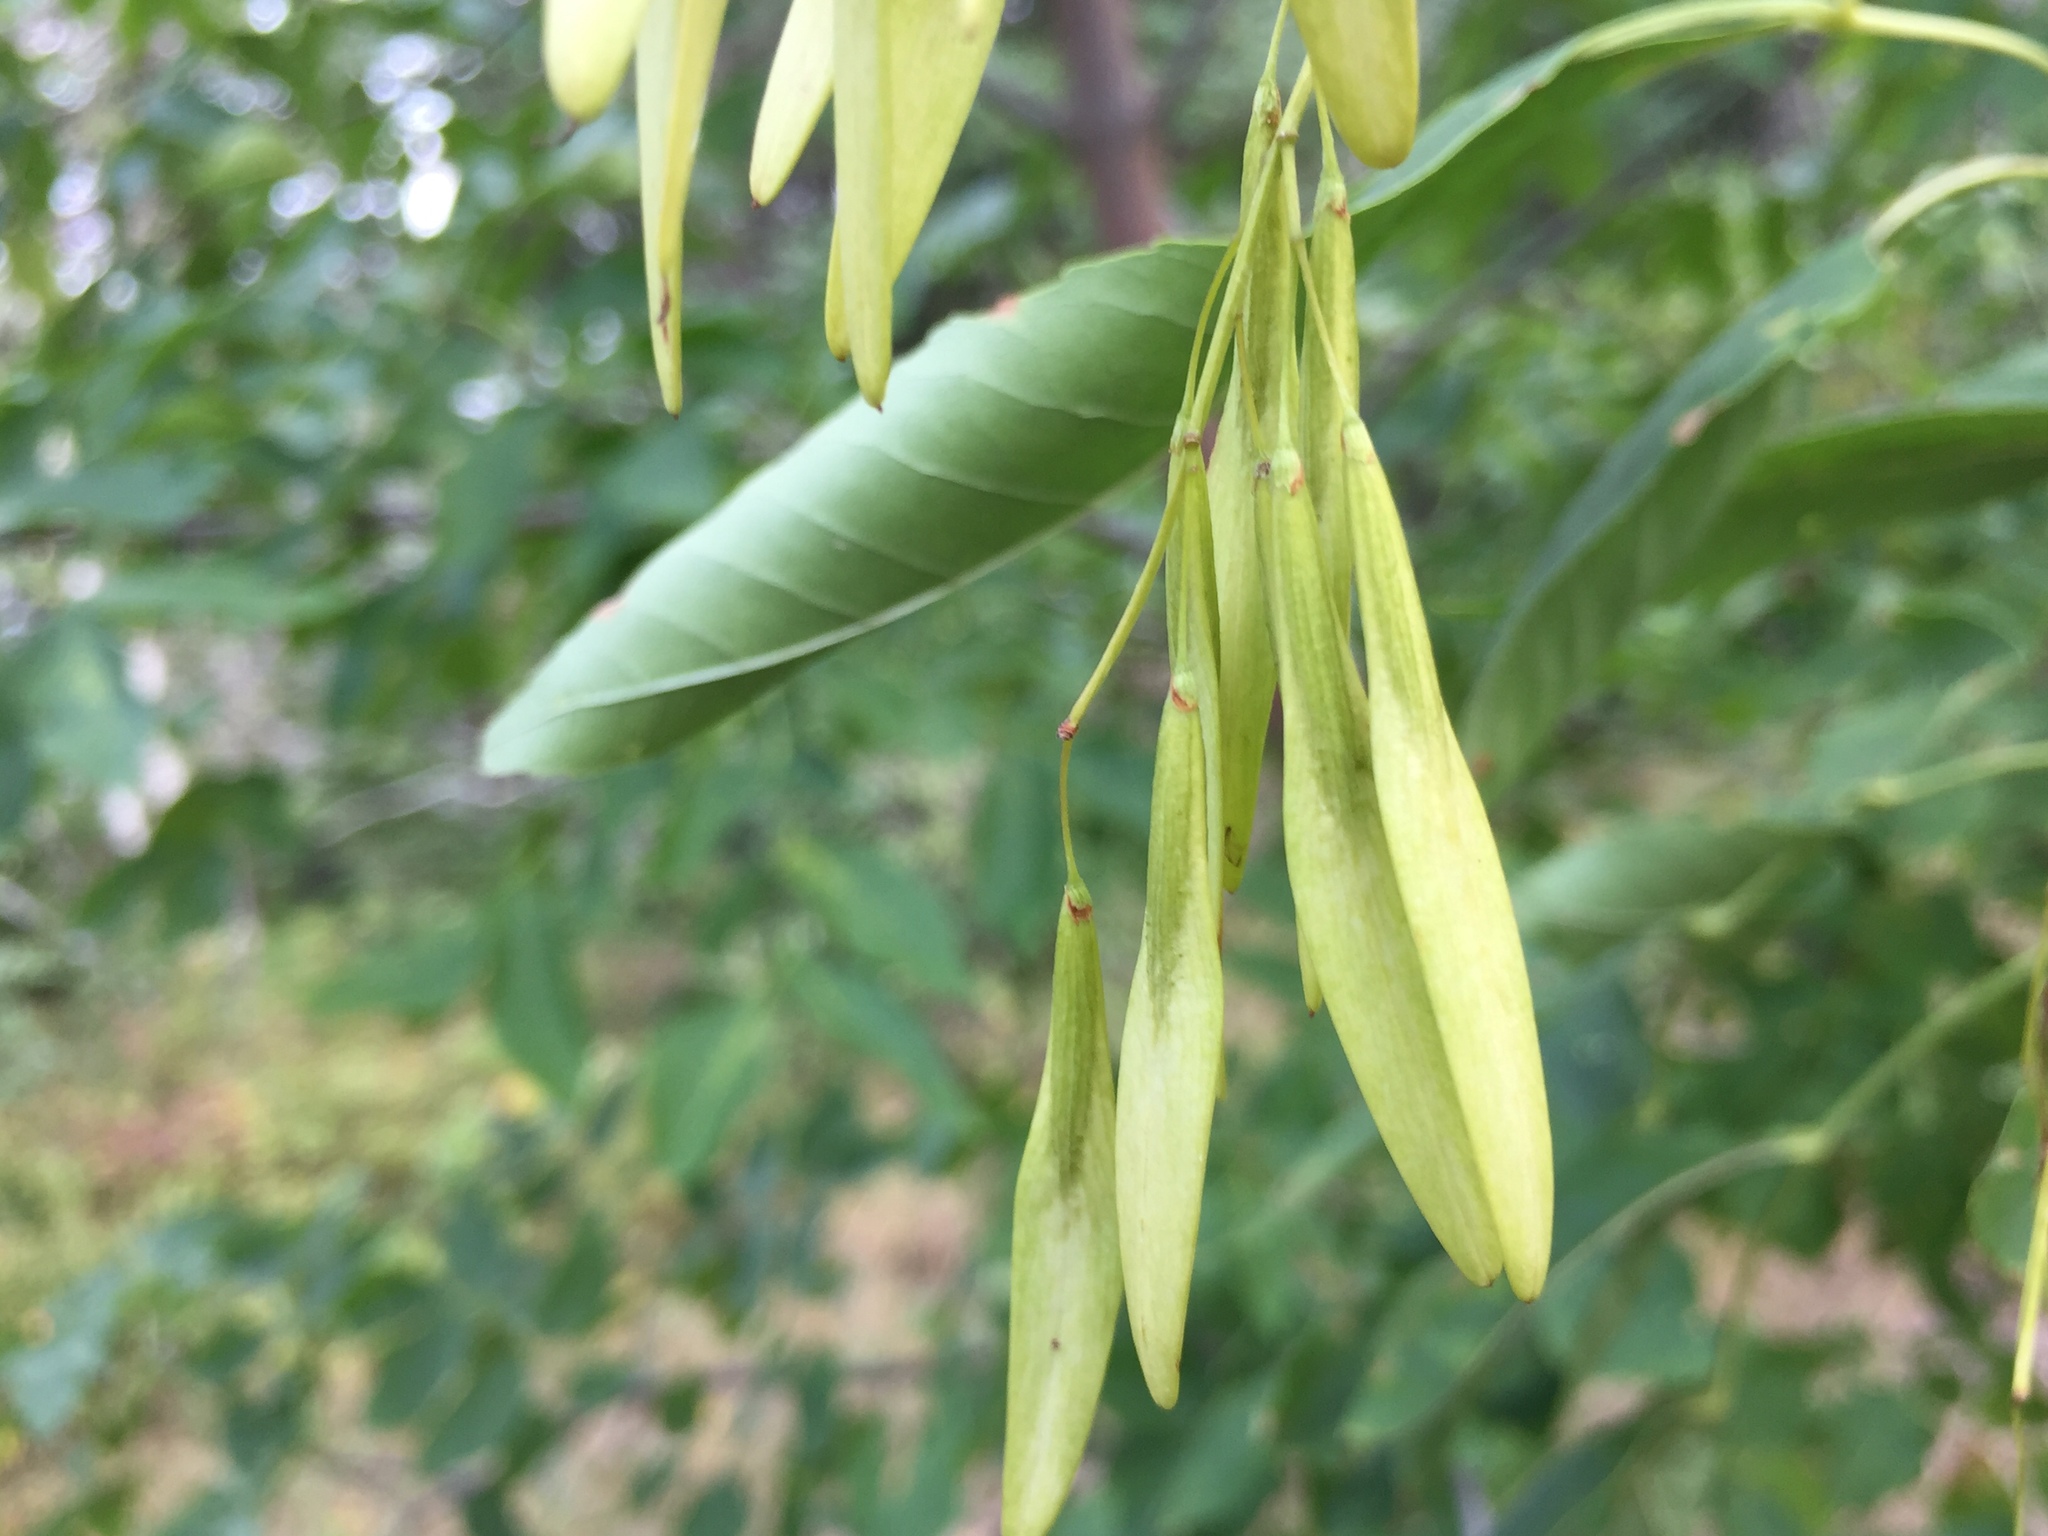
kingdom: Plantae
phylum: Tracheophyta
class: Magnoliopsida
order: Lamiales
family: Oleaceae
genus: Fraxinus
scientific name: Fraxinus pennsylvanica
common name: Green ash
